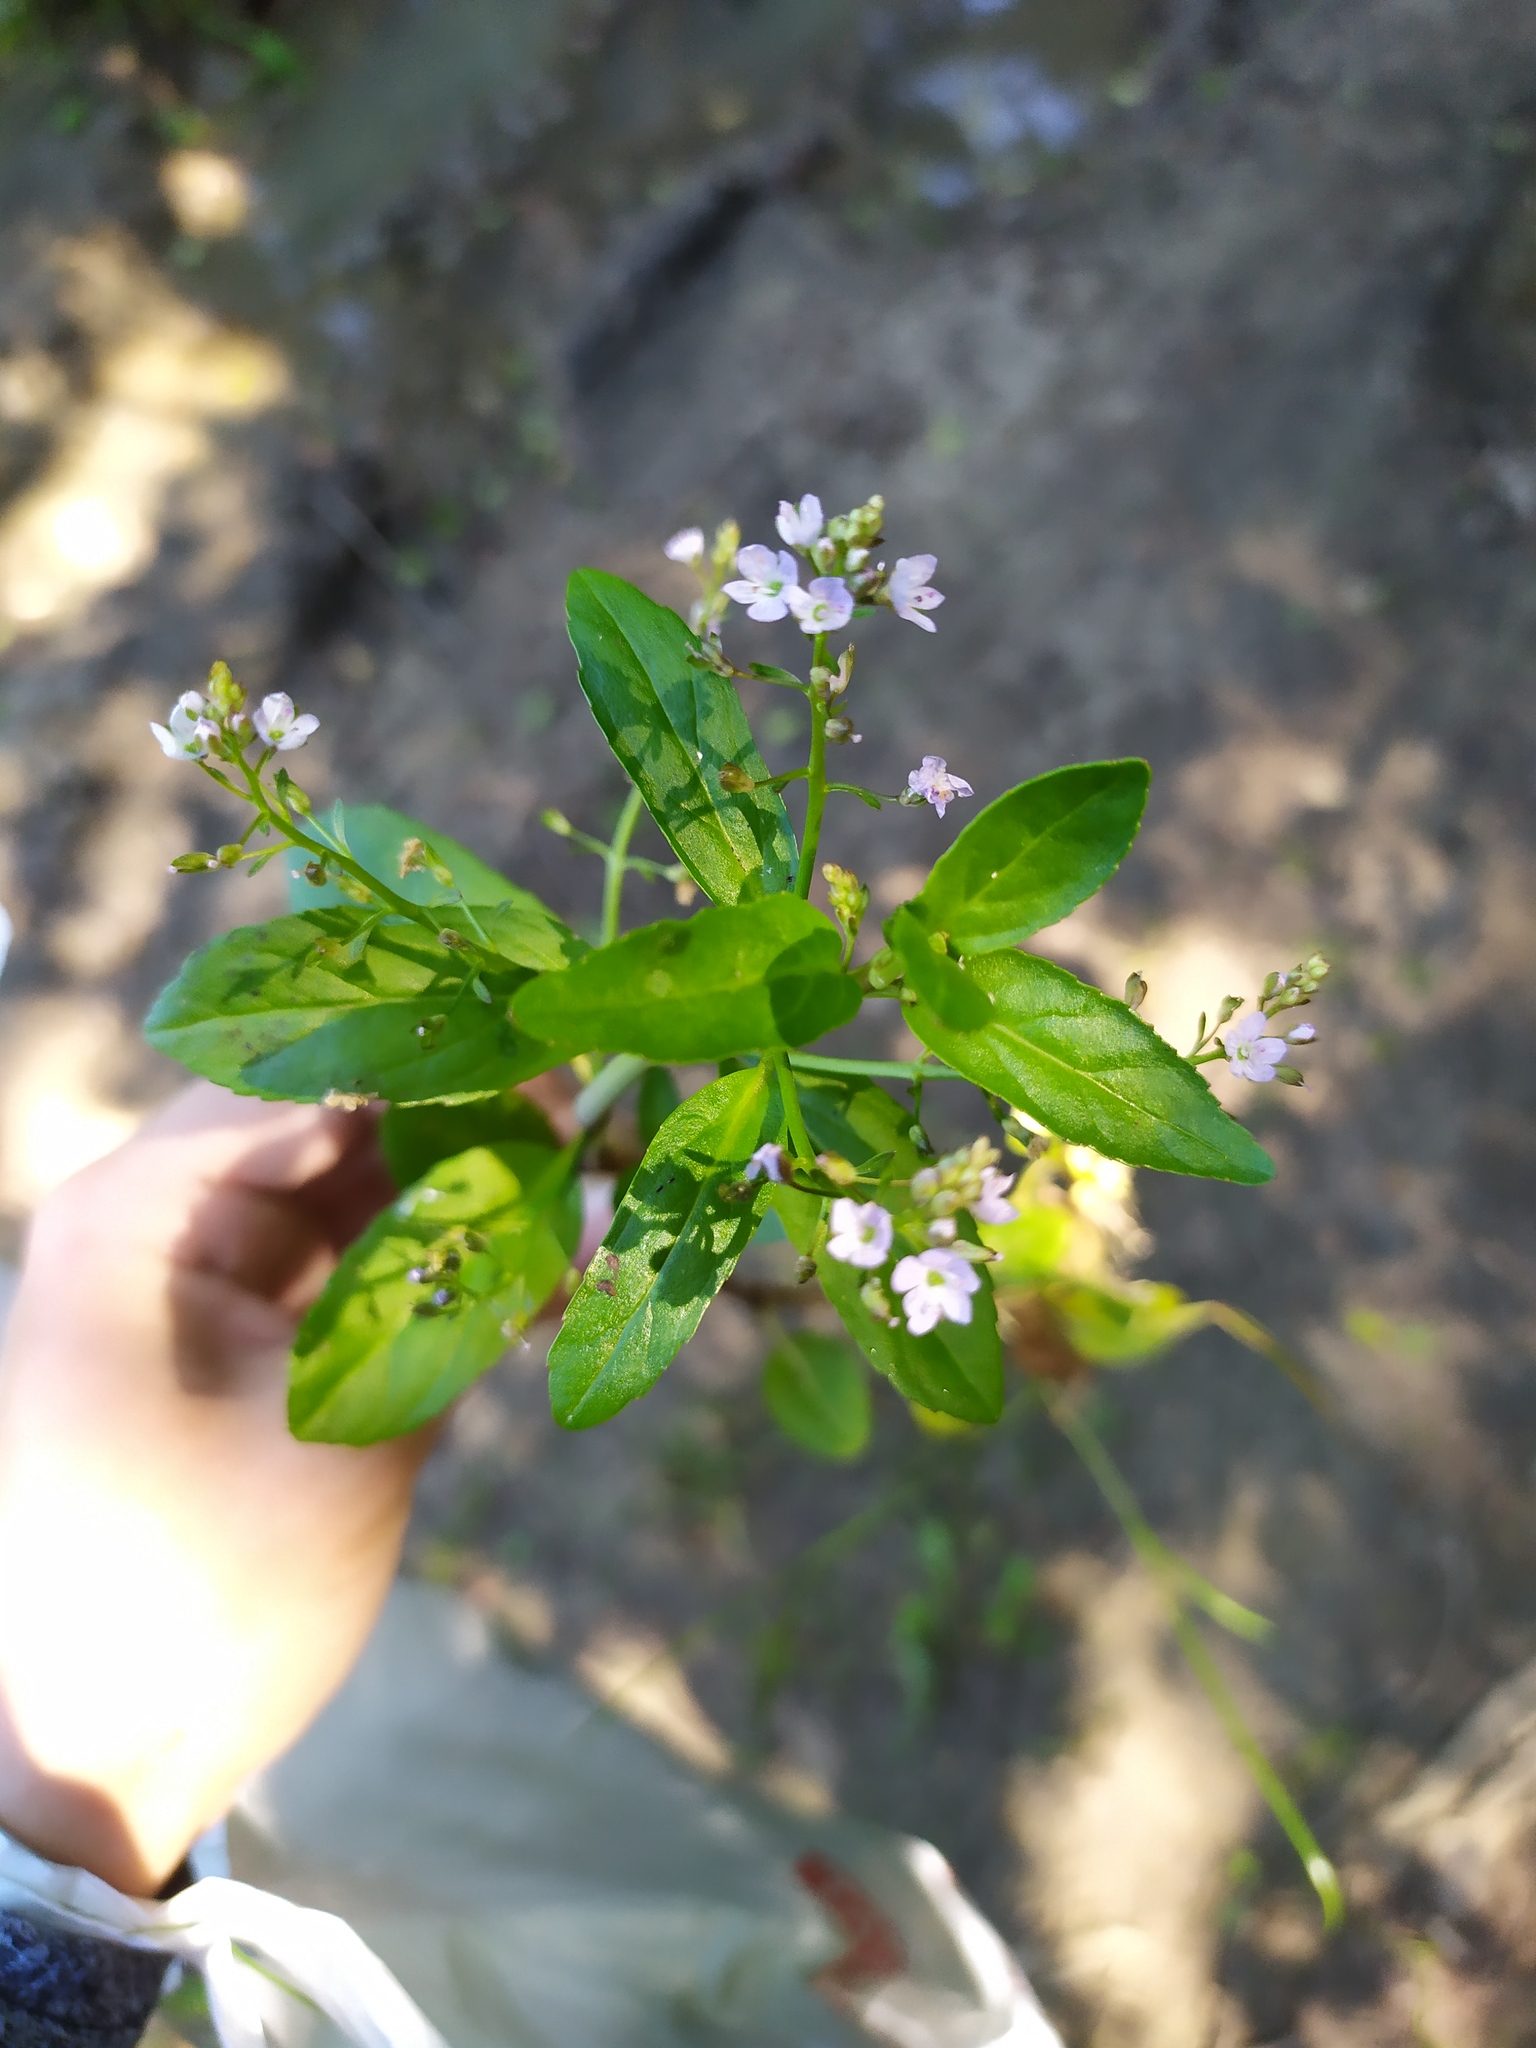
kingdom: Plantae
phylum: Tracheophyta
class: Magnoliopsida
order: Lamiales
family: Plantaginaceae
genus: Veronica
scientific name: Veronica anagallis-aquatica
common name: Water speedwell
